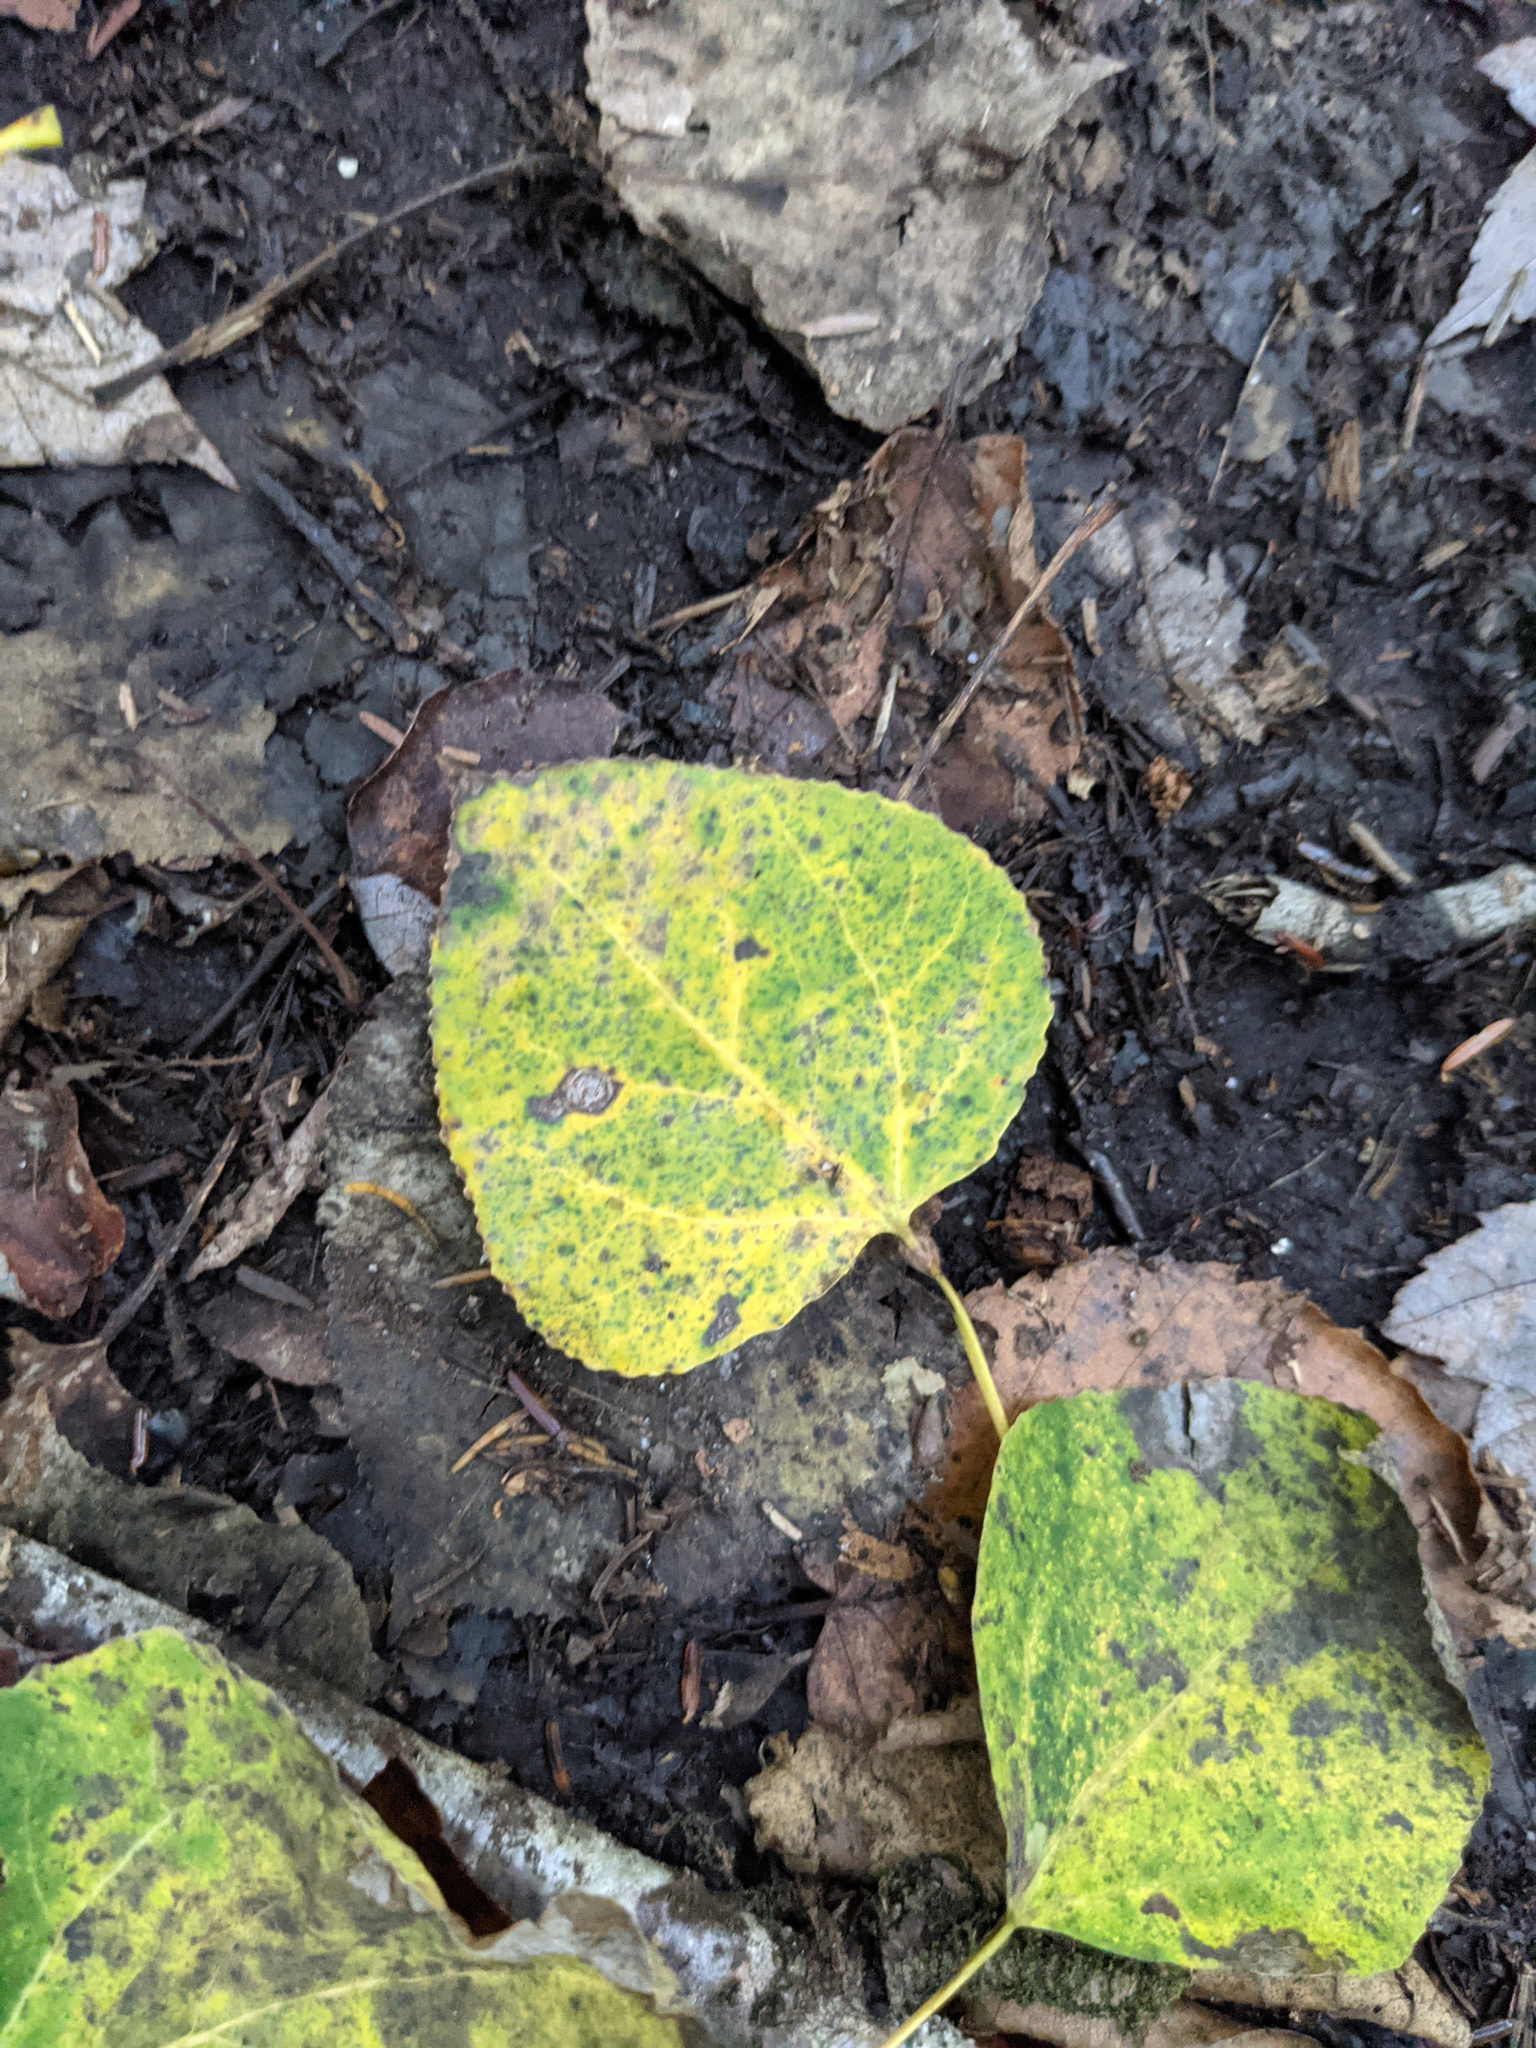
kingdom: Plantae
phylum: Tracheophyta
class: Magnoliopsida
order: Malpighiales
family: Salicaceae
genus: Populus
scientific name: Populus tremuloides
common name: Quaking aspen
